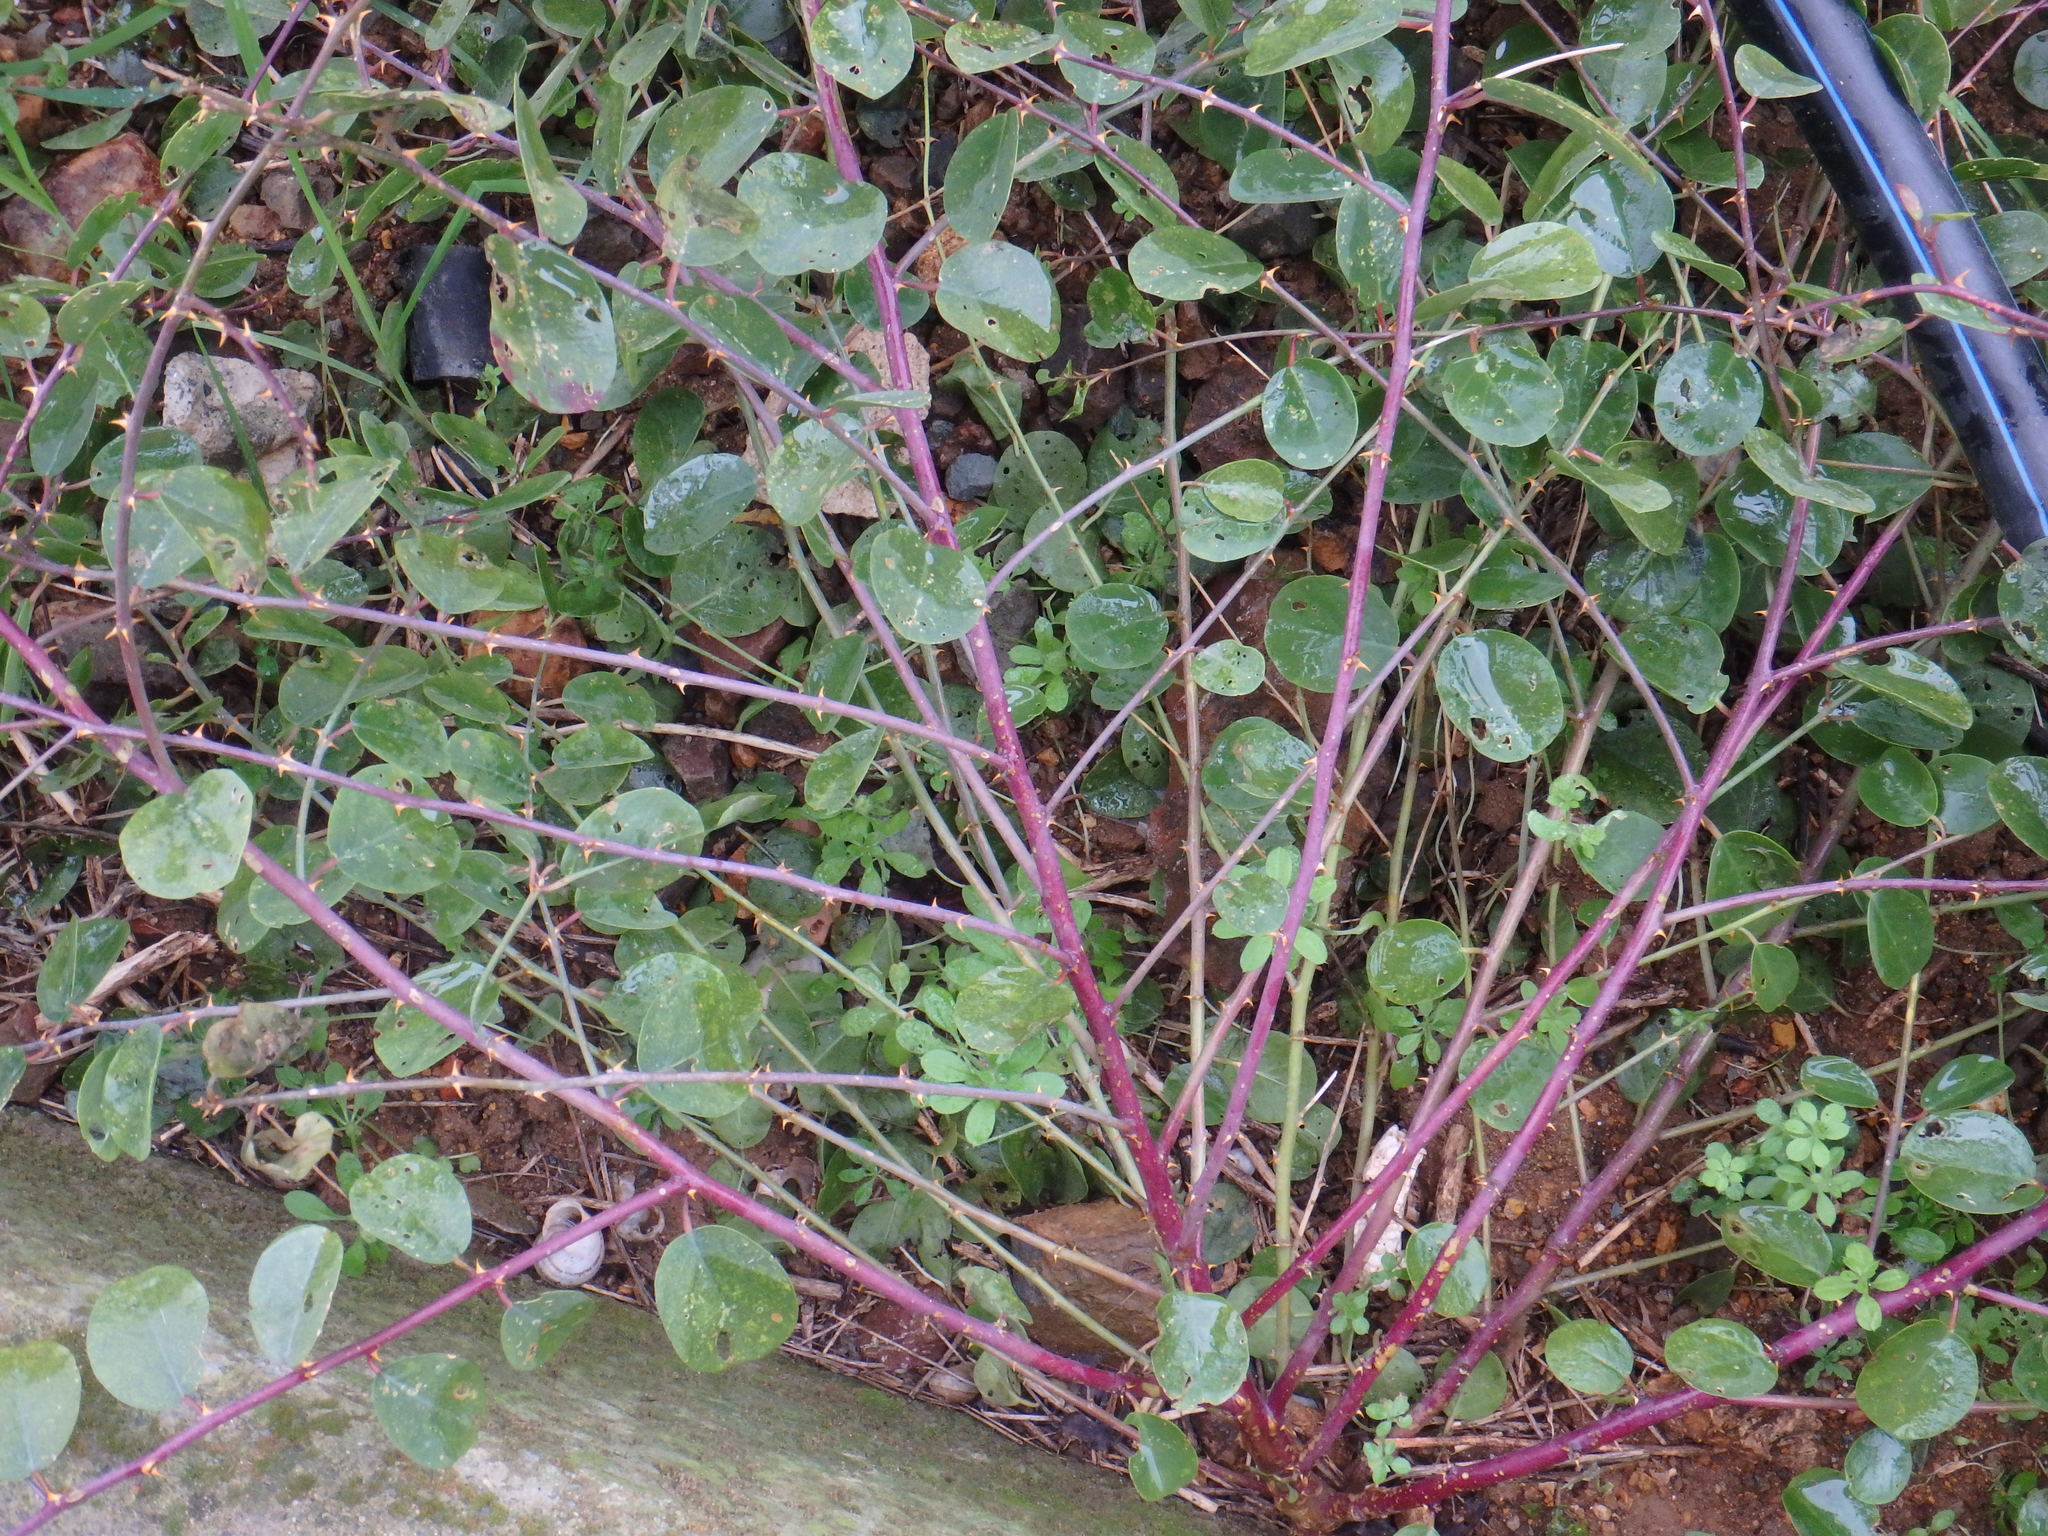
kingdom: Plantae
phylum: Tracheophyta
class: Magnoliopsida
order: Brassicales
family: Capparaceae
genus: Capparis
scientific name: Capparis spinosa
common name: Caper
